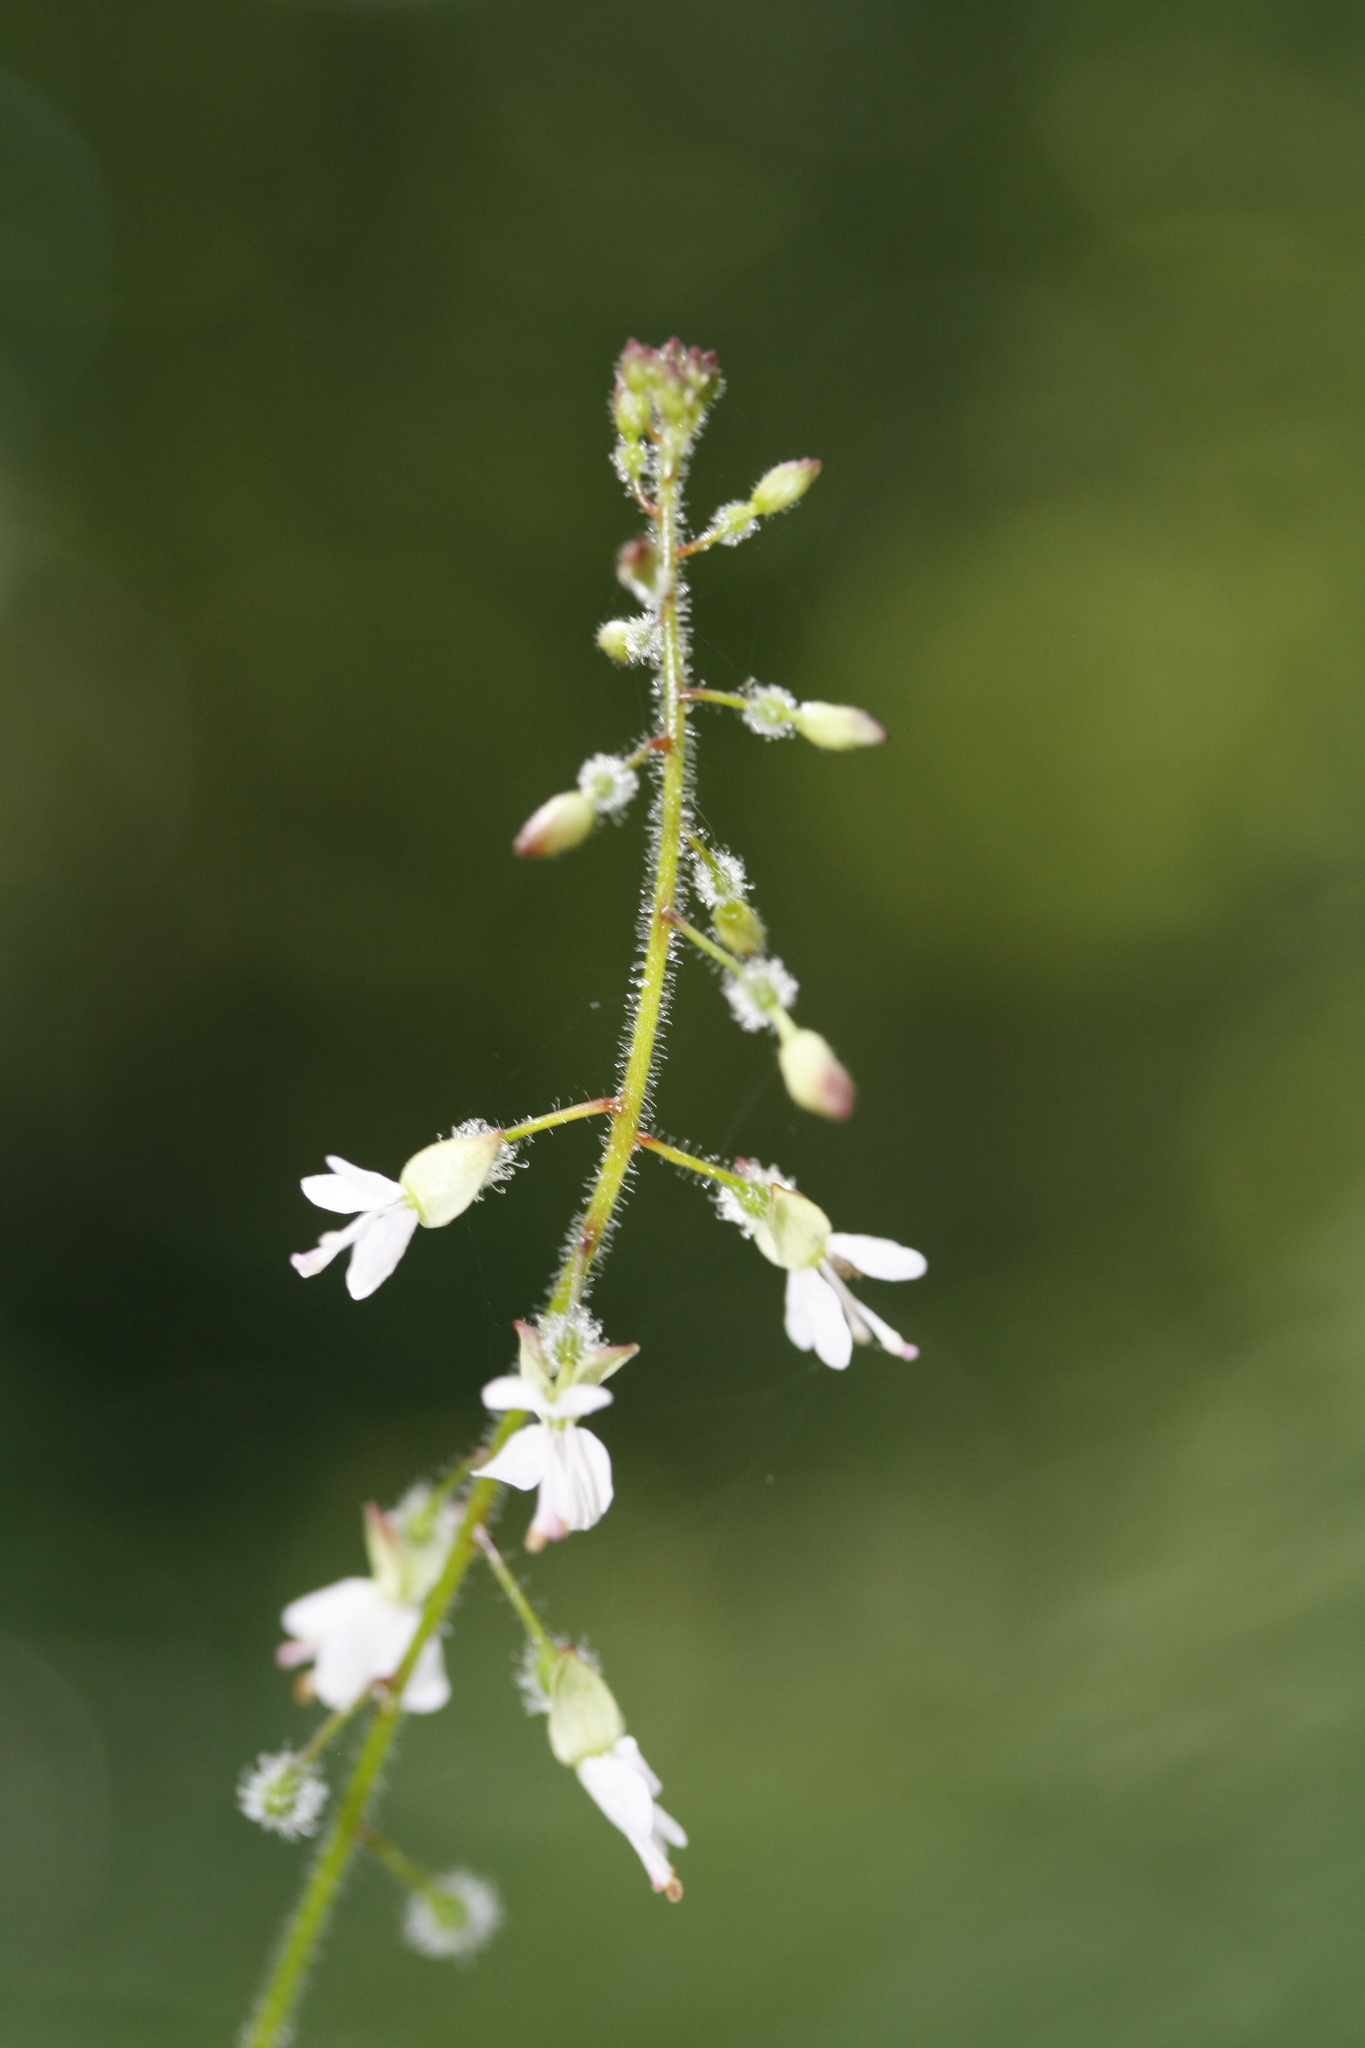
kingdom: Plantae
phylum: Tracheophyta
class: Magnoliopsida
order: Myrtales
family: Onagraceae
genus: Circaea
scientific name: Circaea lutetiana
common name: Enchanter's-nightshade
